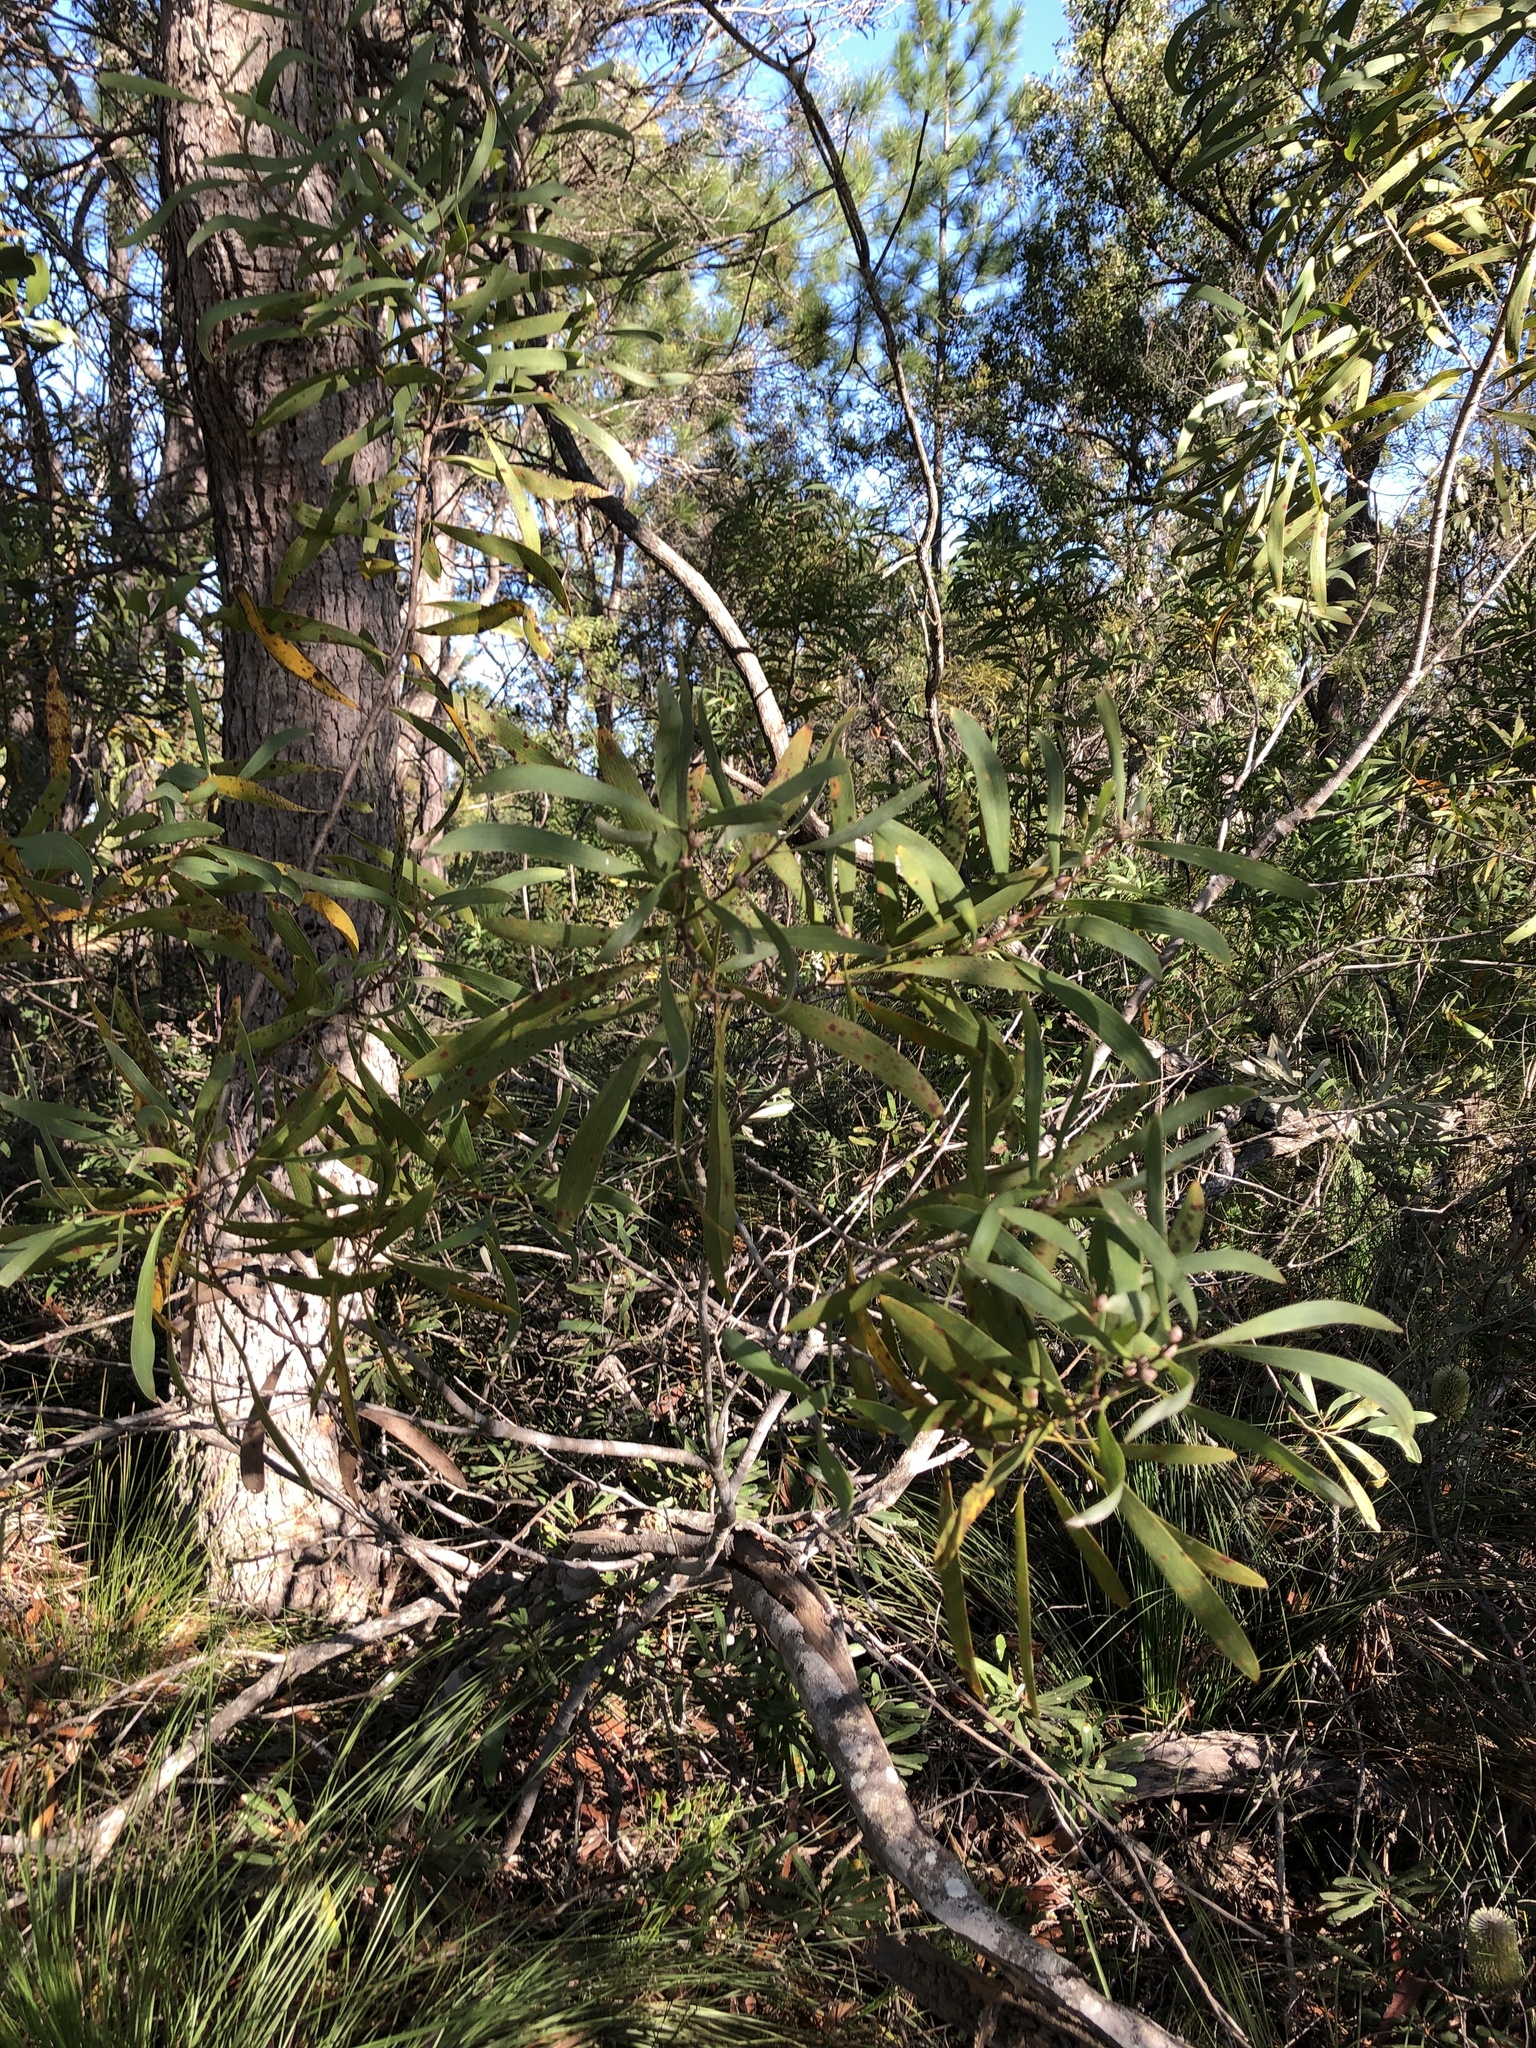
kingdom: Plantae
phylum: Tracheophyta
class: Magnoliopsida
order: Proteales
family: Proteaceae
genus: Hakea
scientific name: Hakea benthamii
